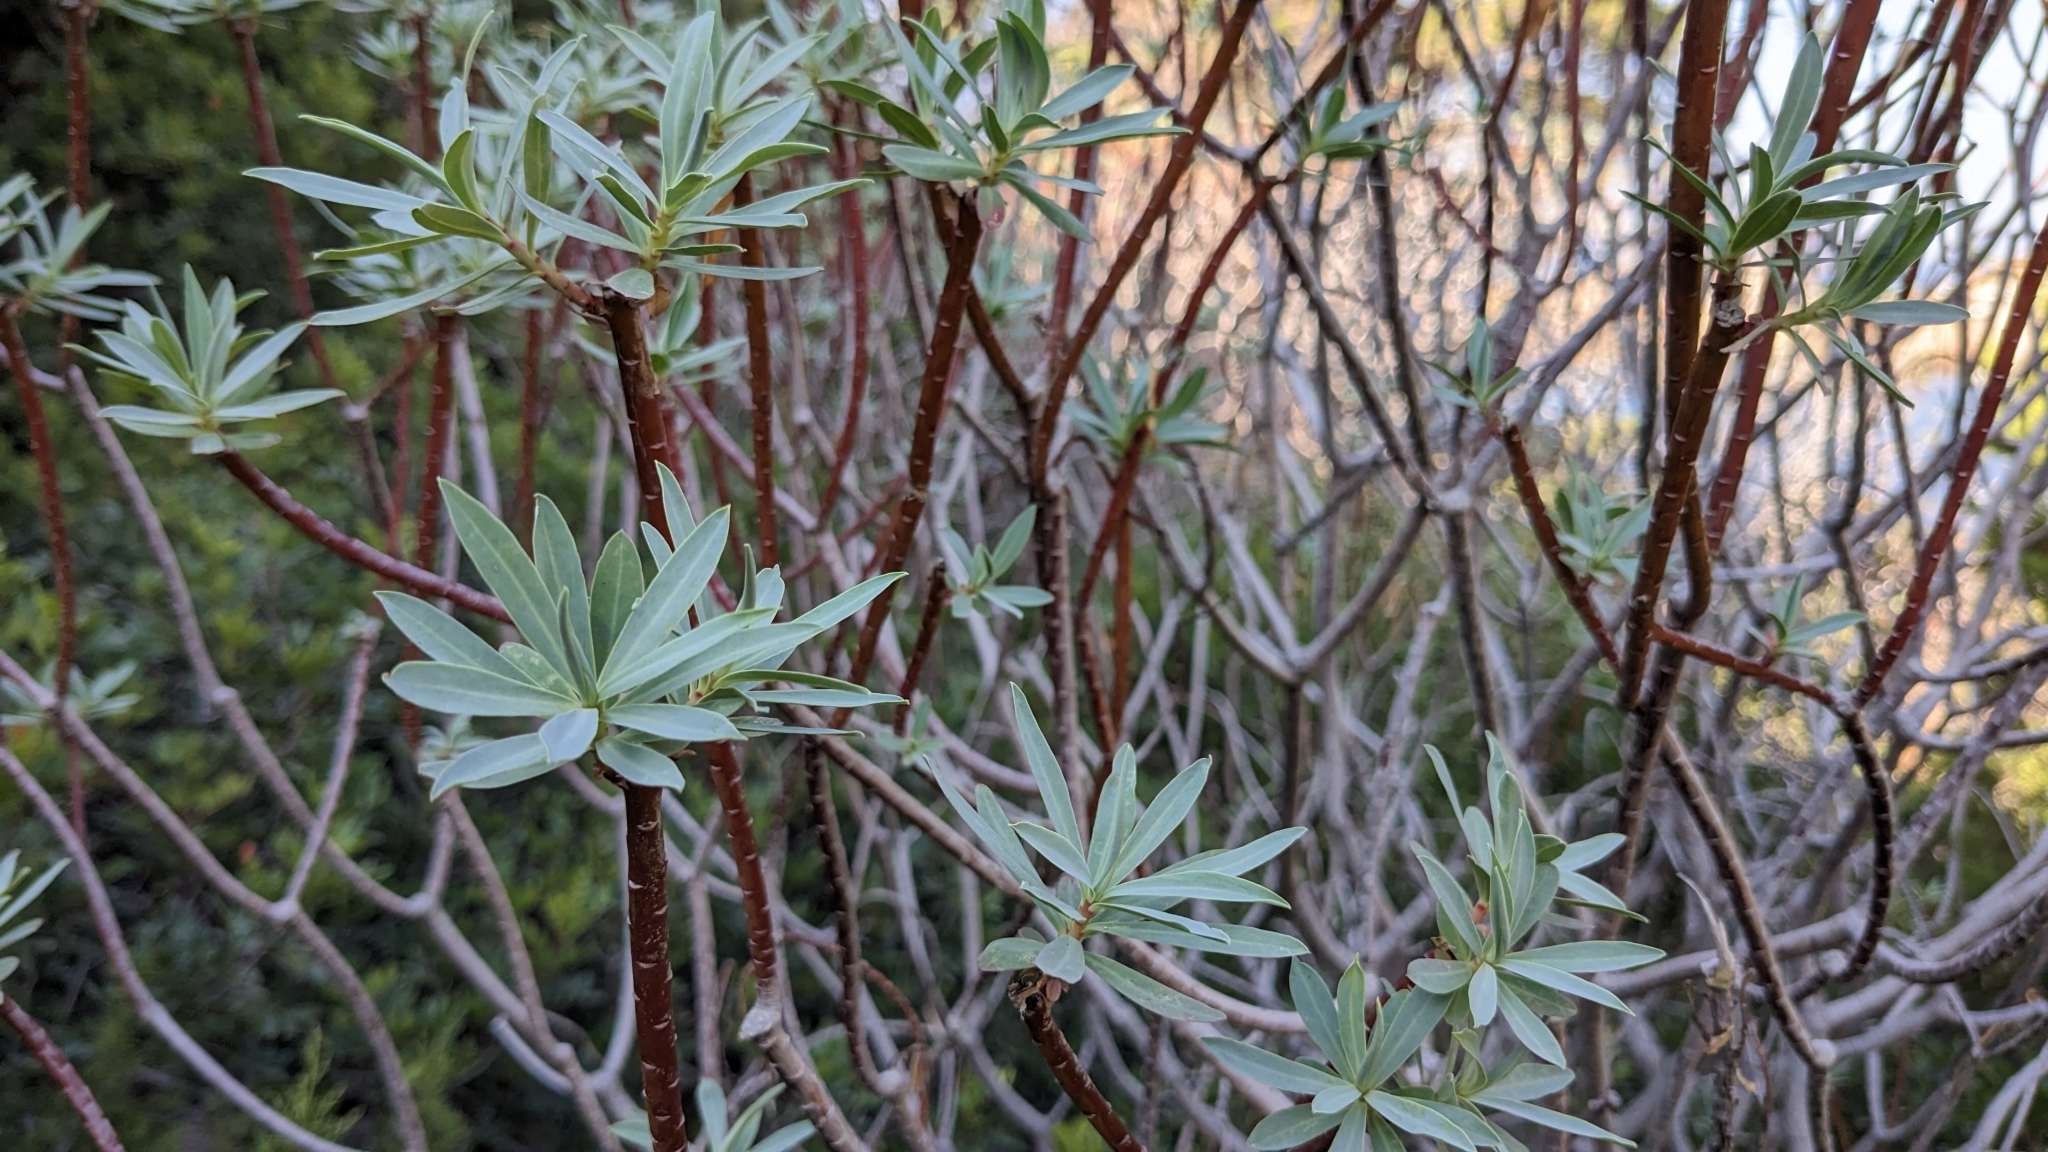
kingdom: Plantae
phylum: Tracheophyta
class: Magnoliopsida
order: Malpighiales
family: Euphorbiaceae
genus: Euphorbia
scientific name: Euphorbia dendroides
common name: Tree spurge
